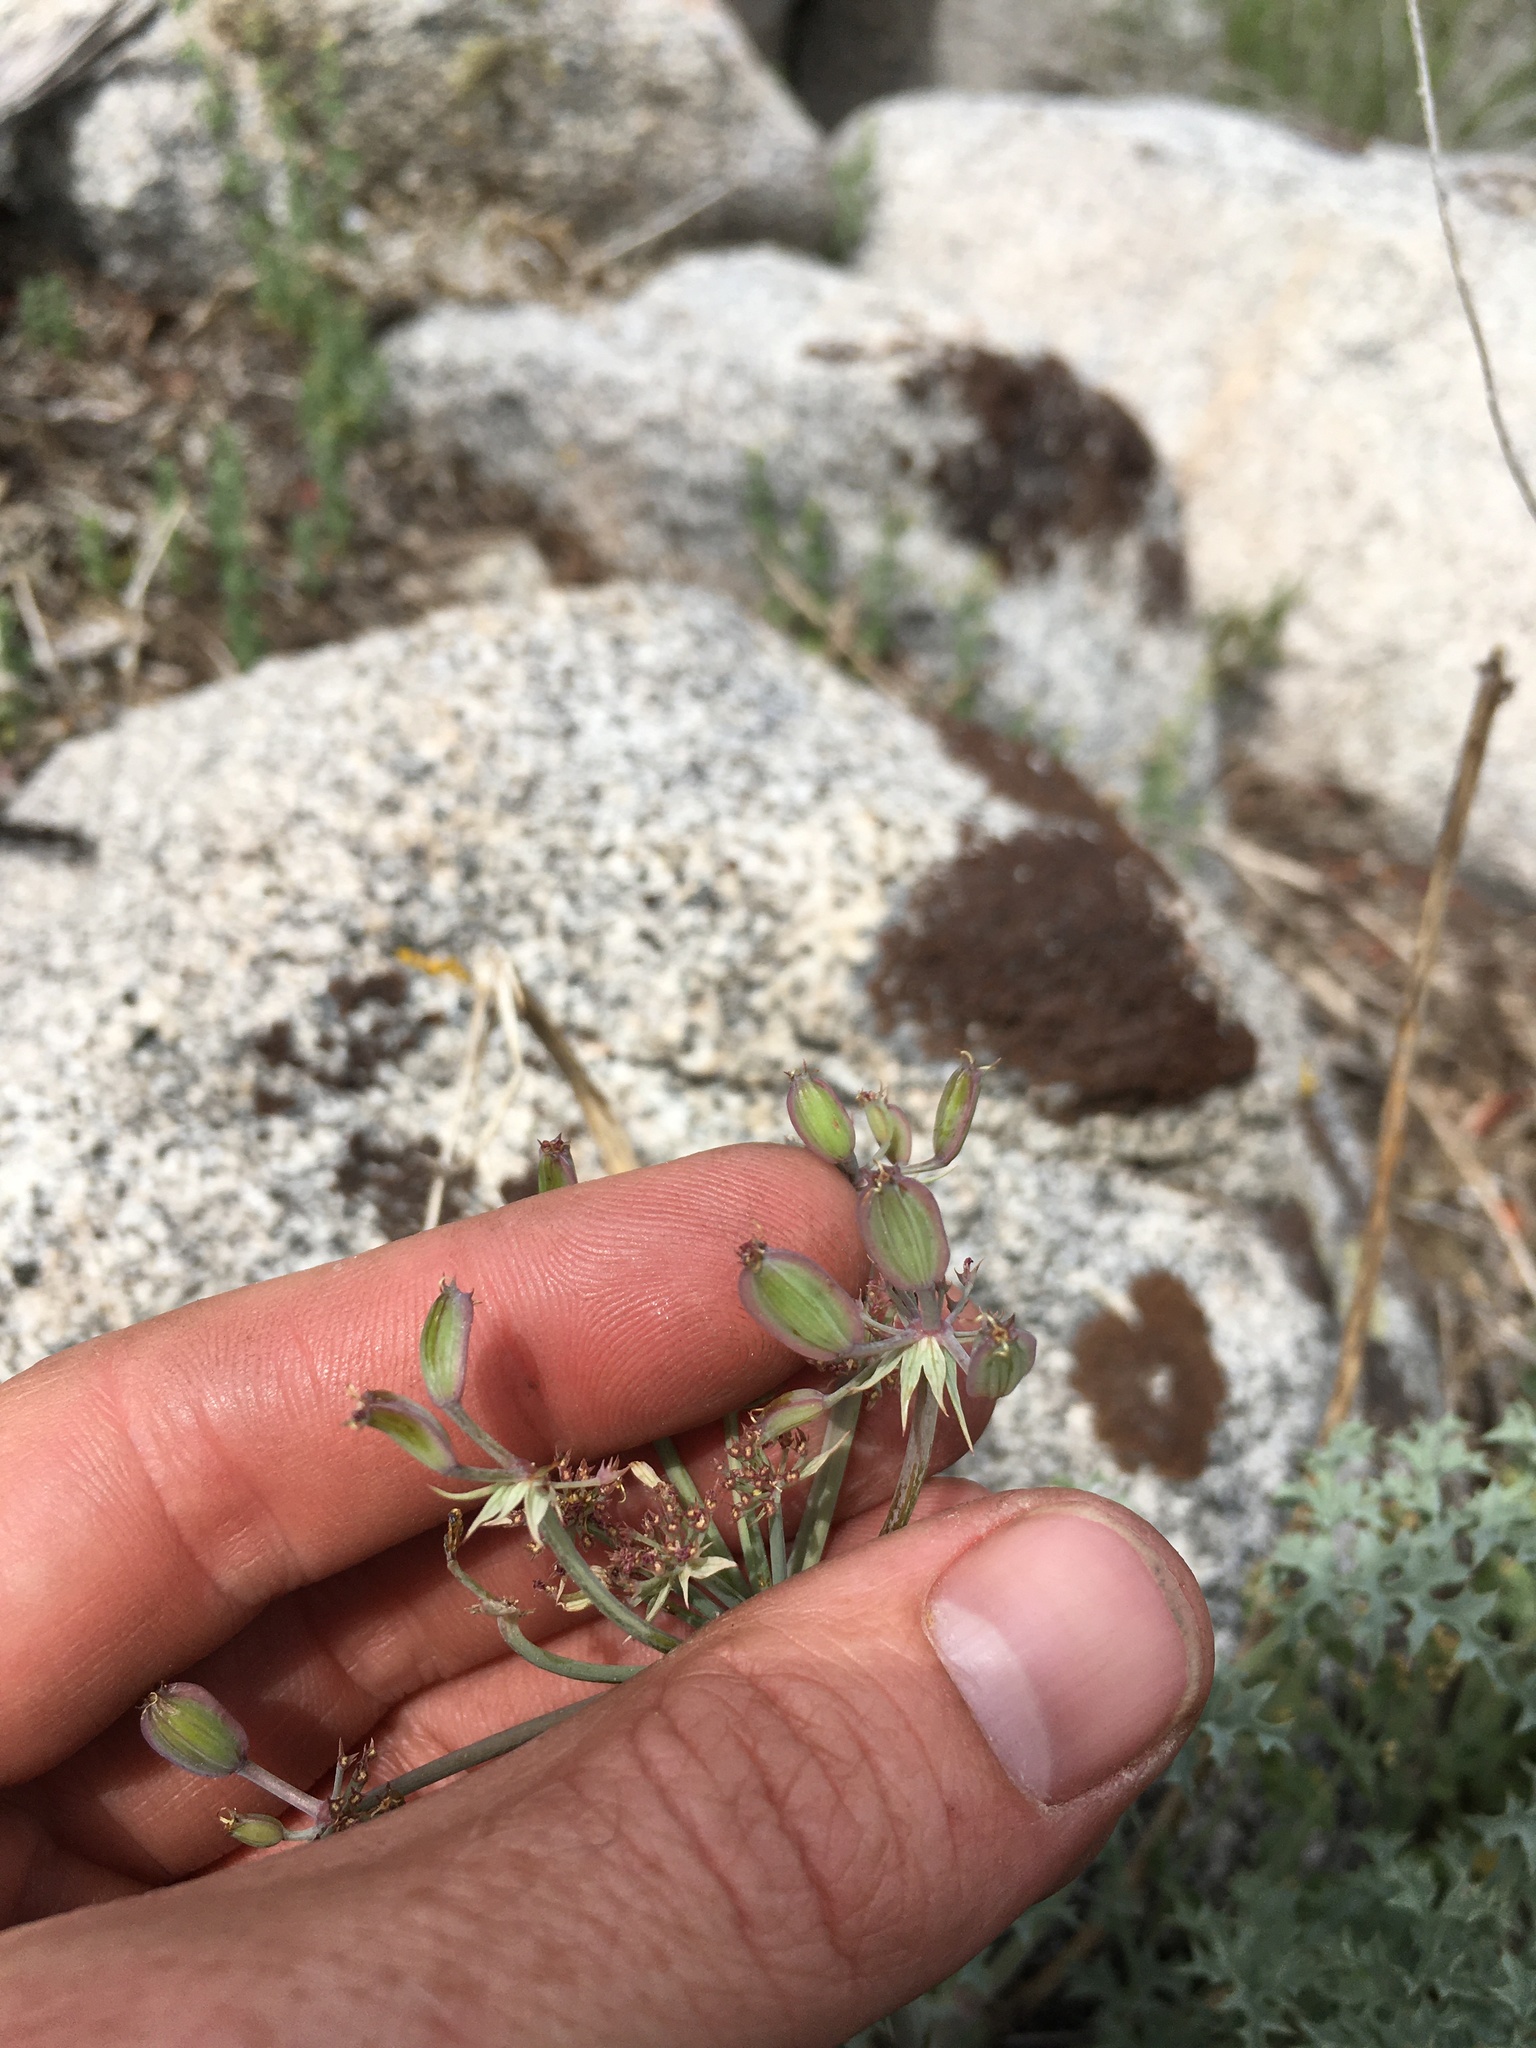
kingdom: Plantae
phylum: Tracheophyta
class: Magnoliopsida
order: Apiales
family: Apiaceae
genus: Lomatium
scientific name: Lomatium rigidum
